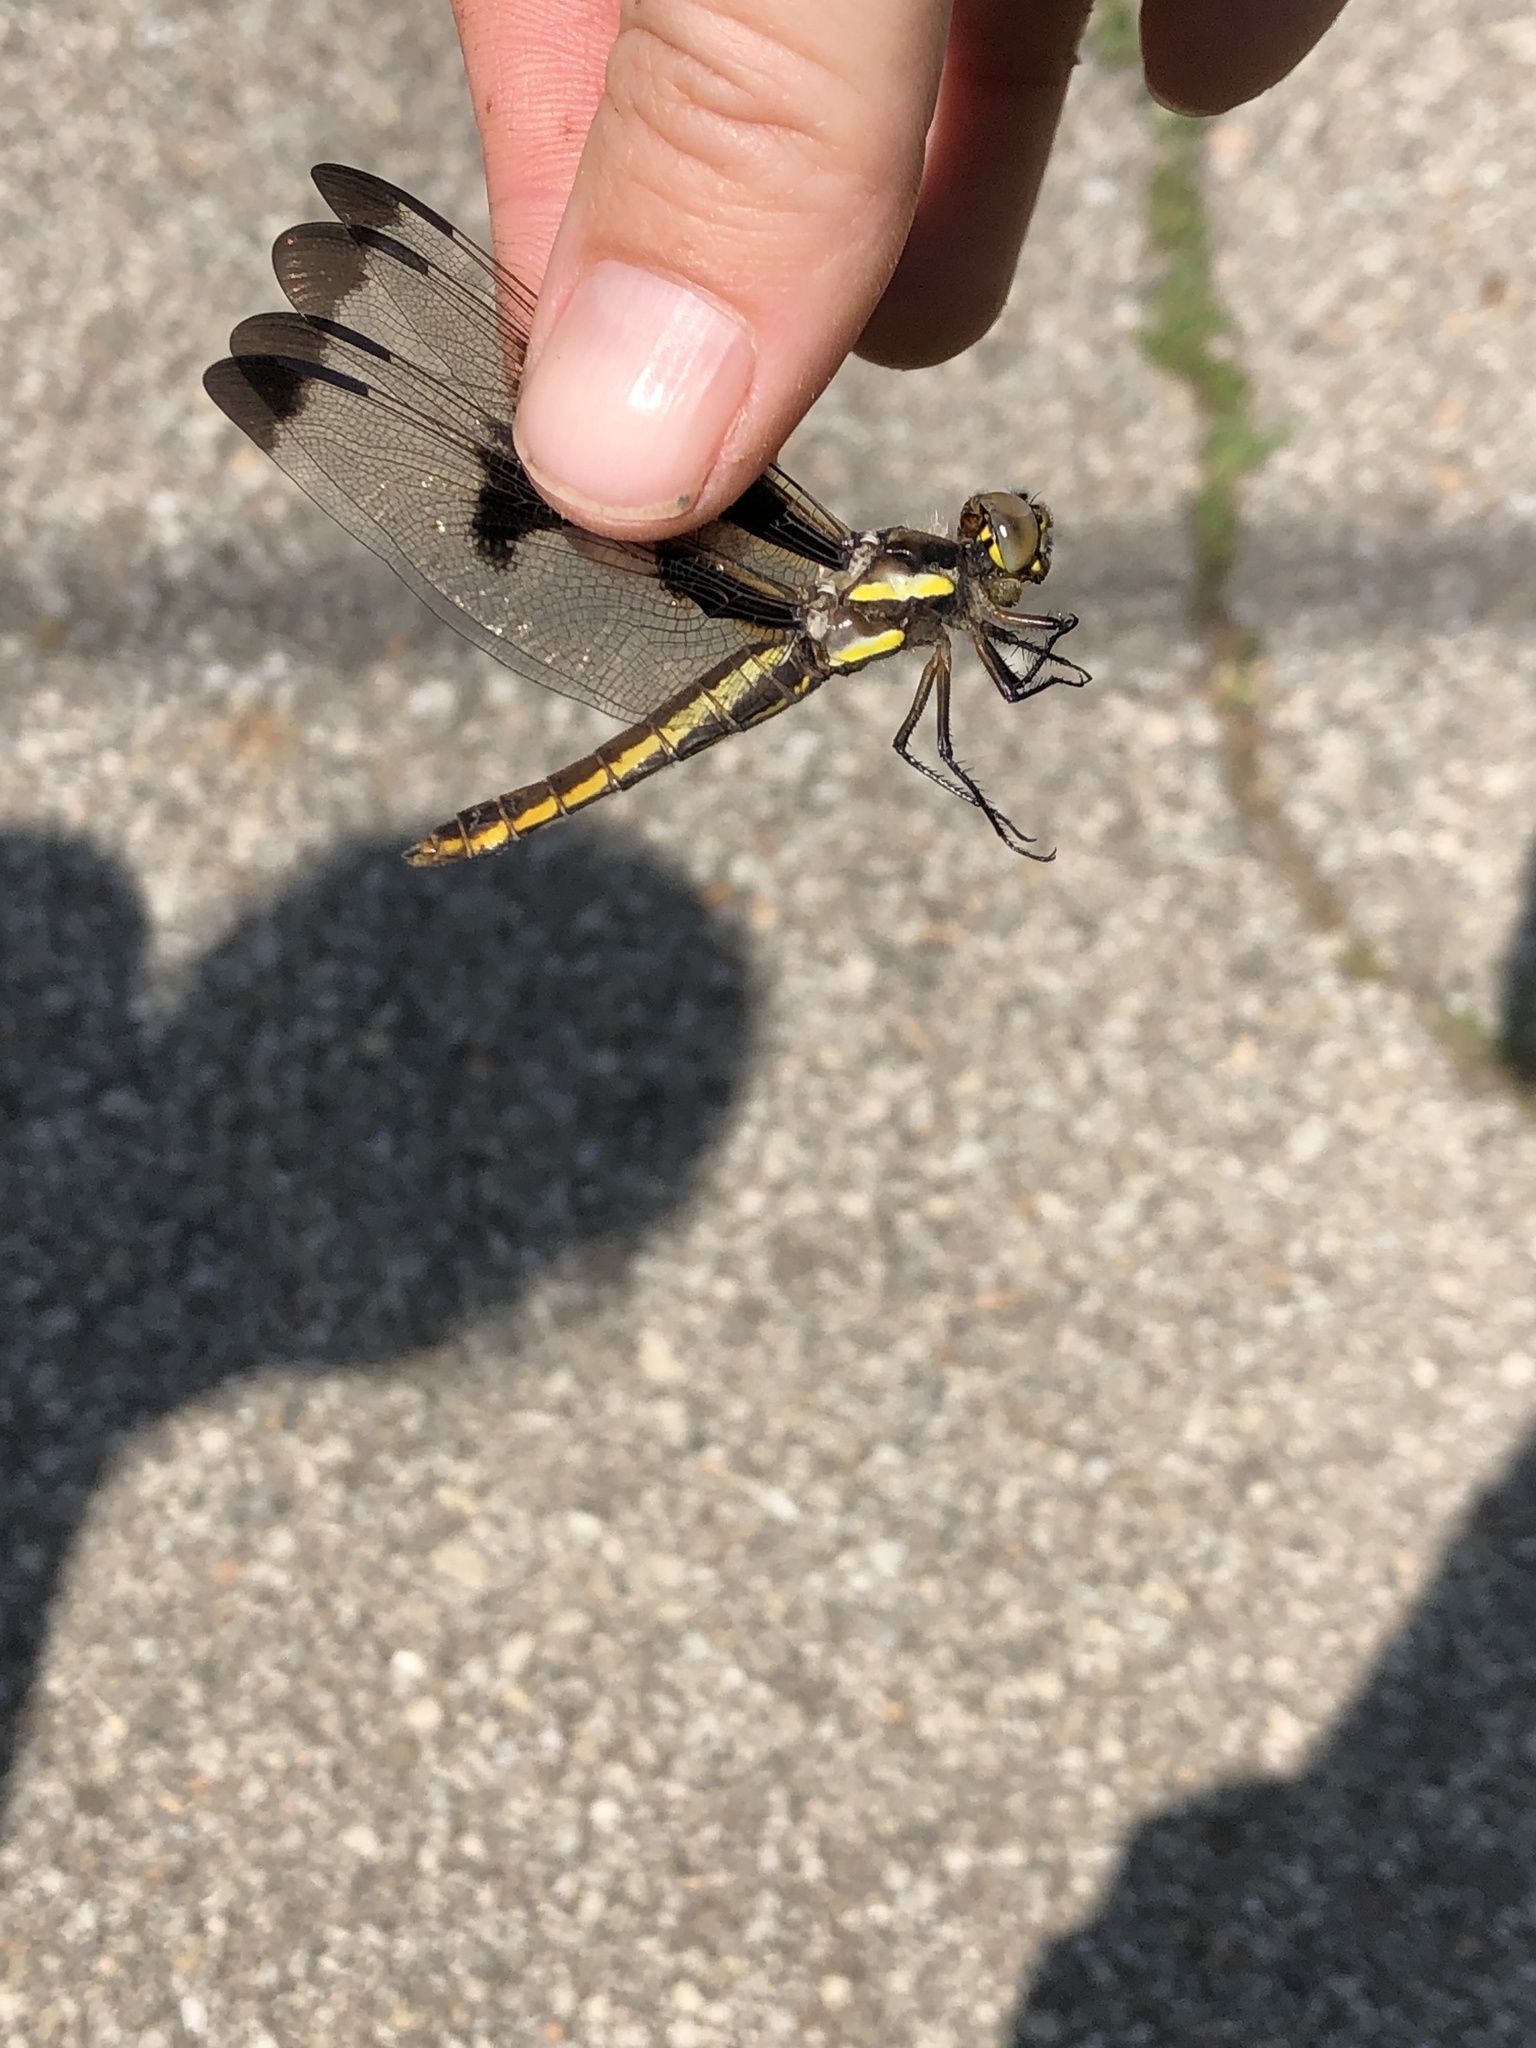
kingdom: Animalia
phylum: Arthropoda
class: Insecta
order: Odonata
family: Libellulidae
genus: Libellula
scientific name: Libellula pulchella
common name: Twelve-spotted skimmer
